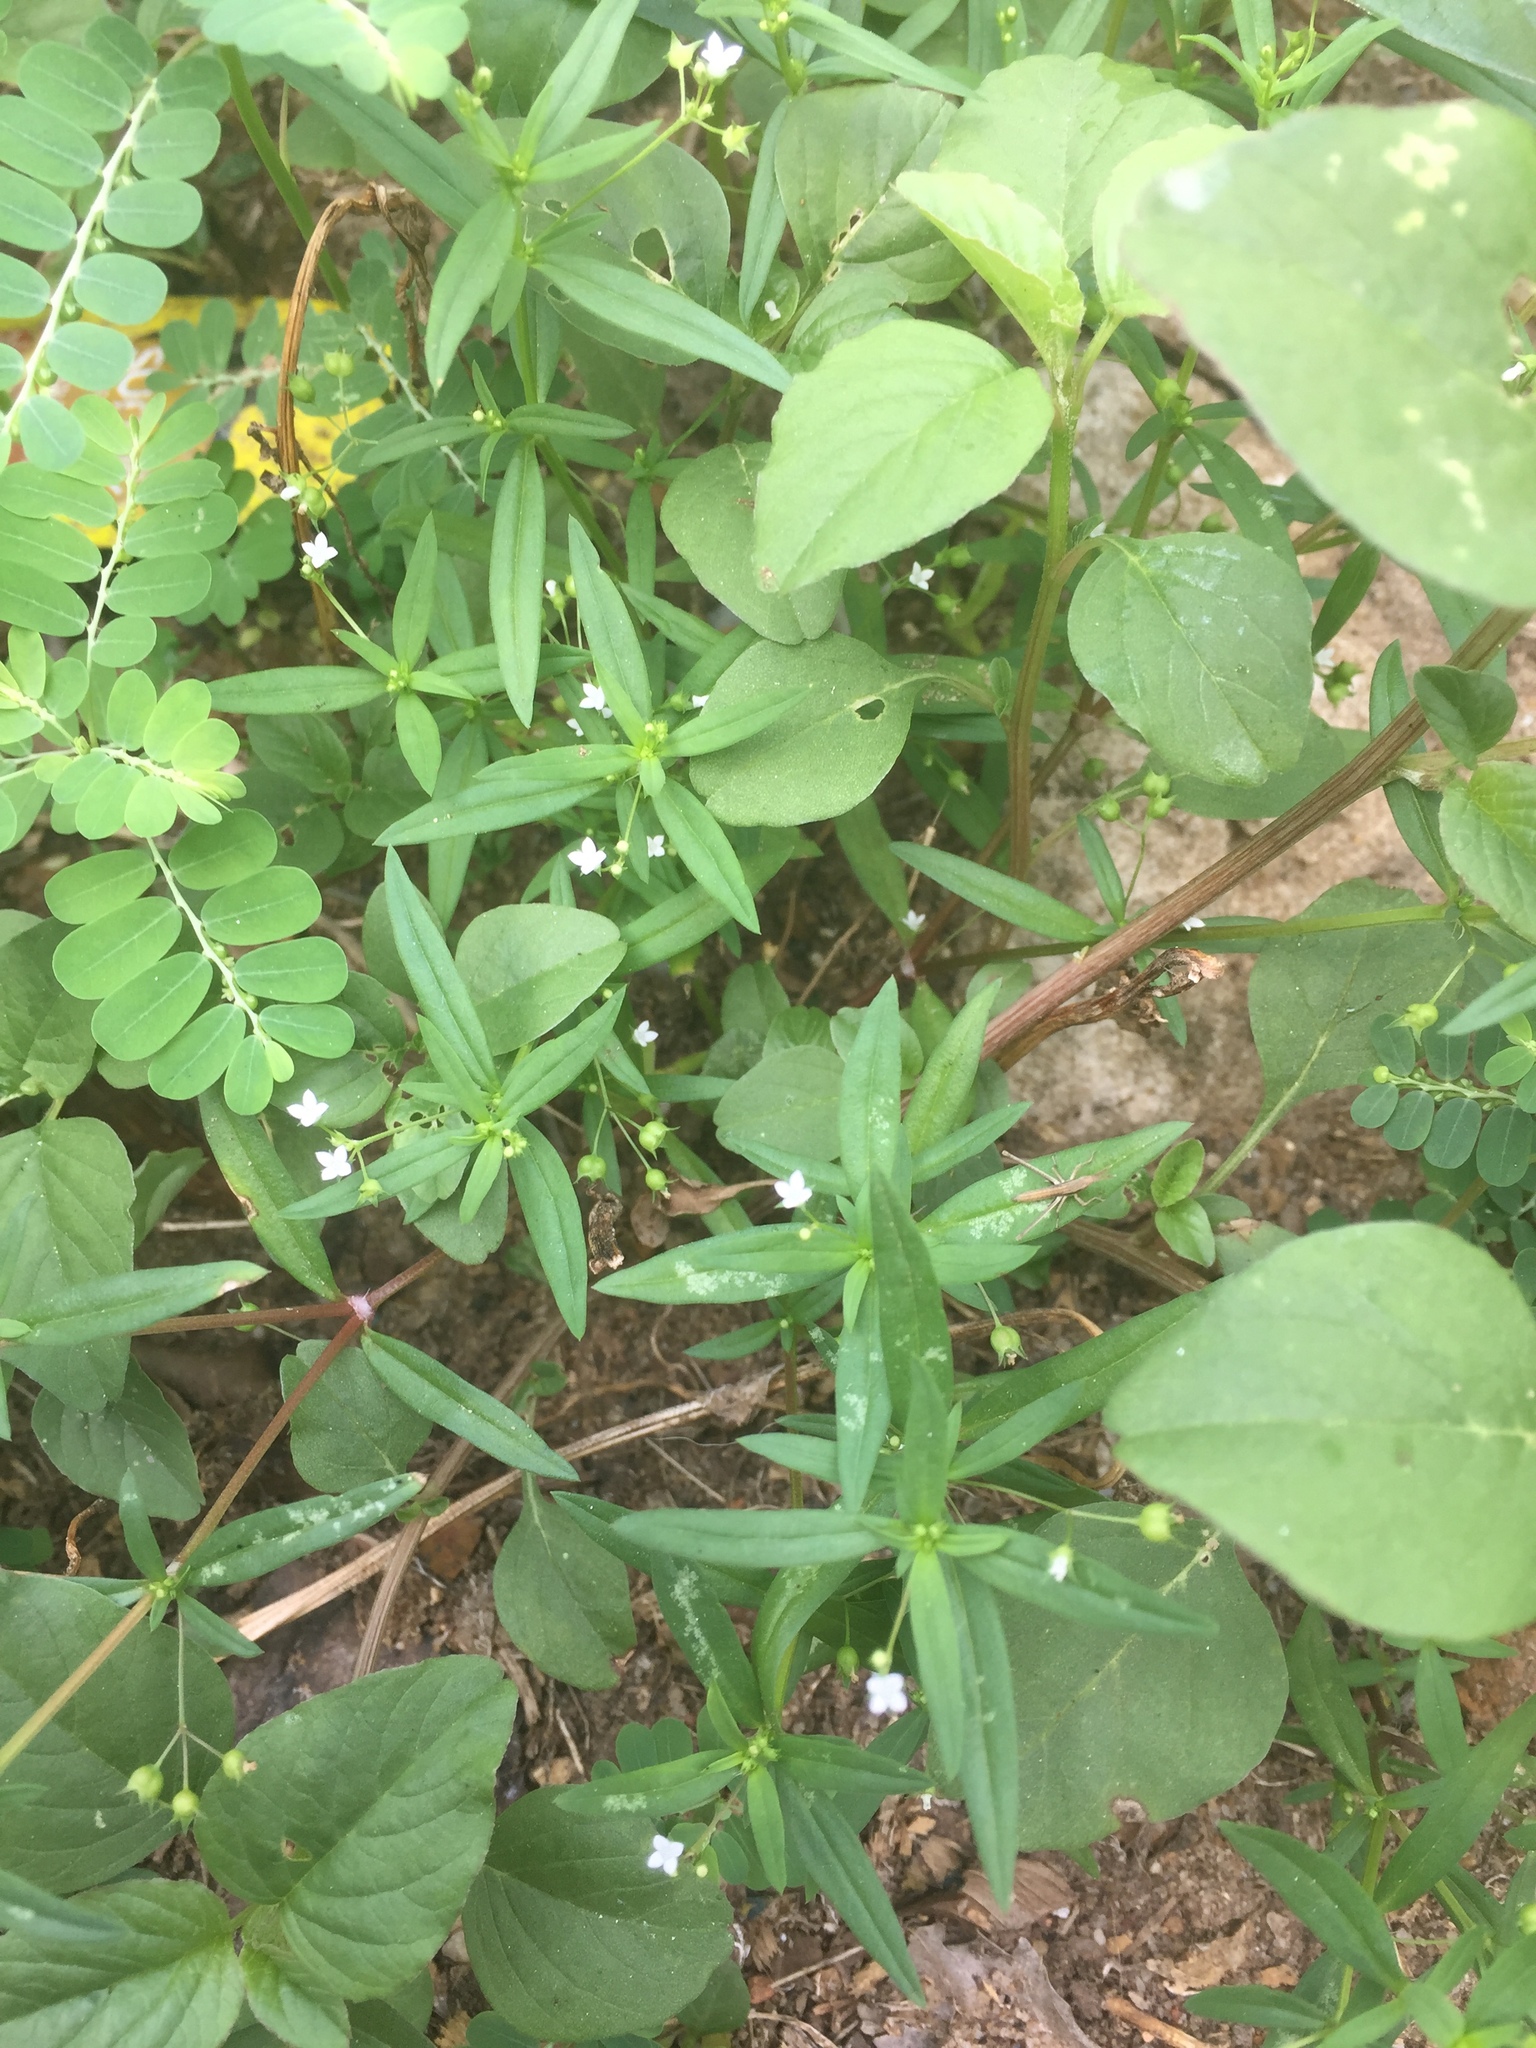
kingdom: Plantae
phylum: Tracheophyta
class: Magnoliopsida
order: Gentianales
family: Rubiaceae
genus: Oldenlandia
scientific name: Oldenlandia corymbosa
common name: Flat-top mille graines
